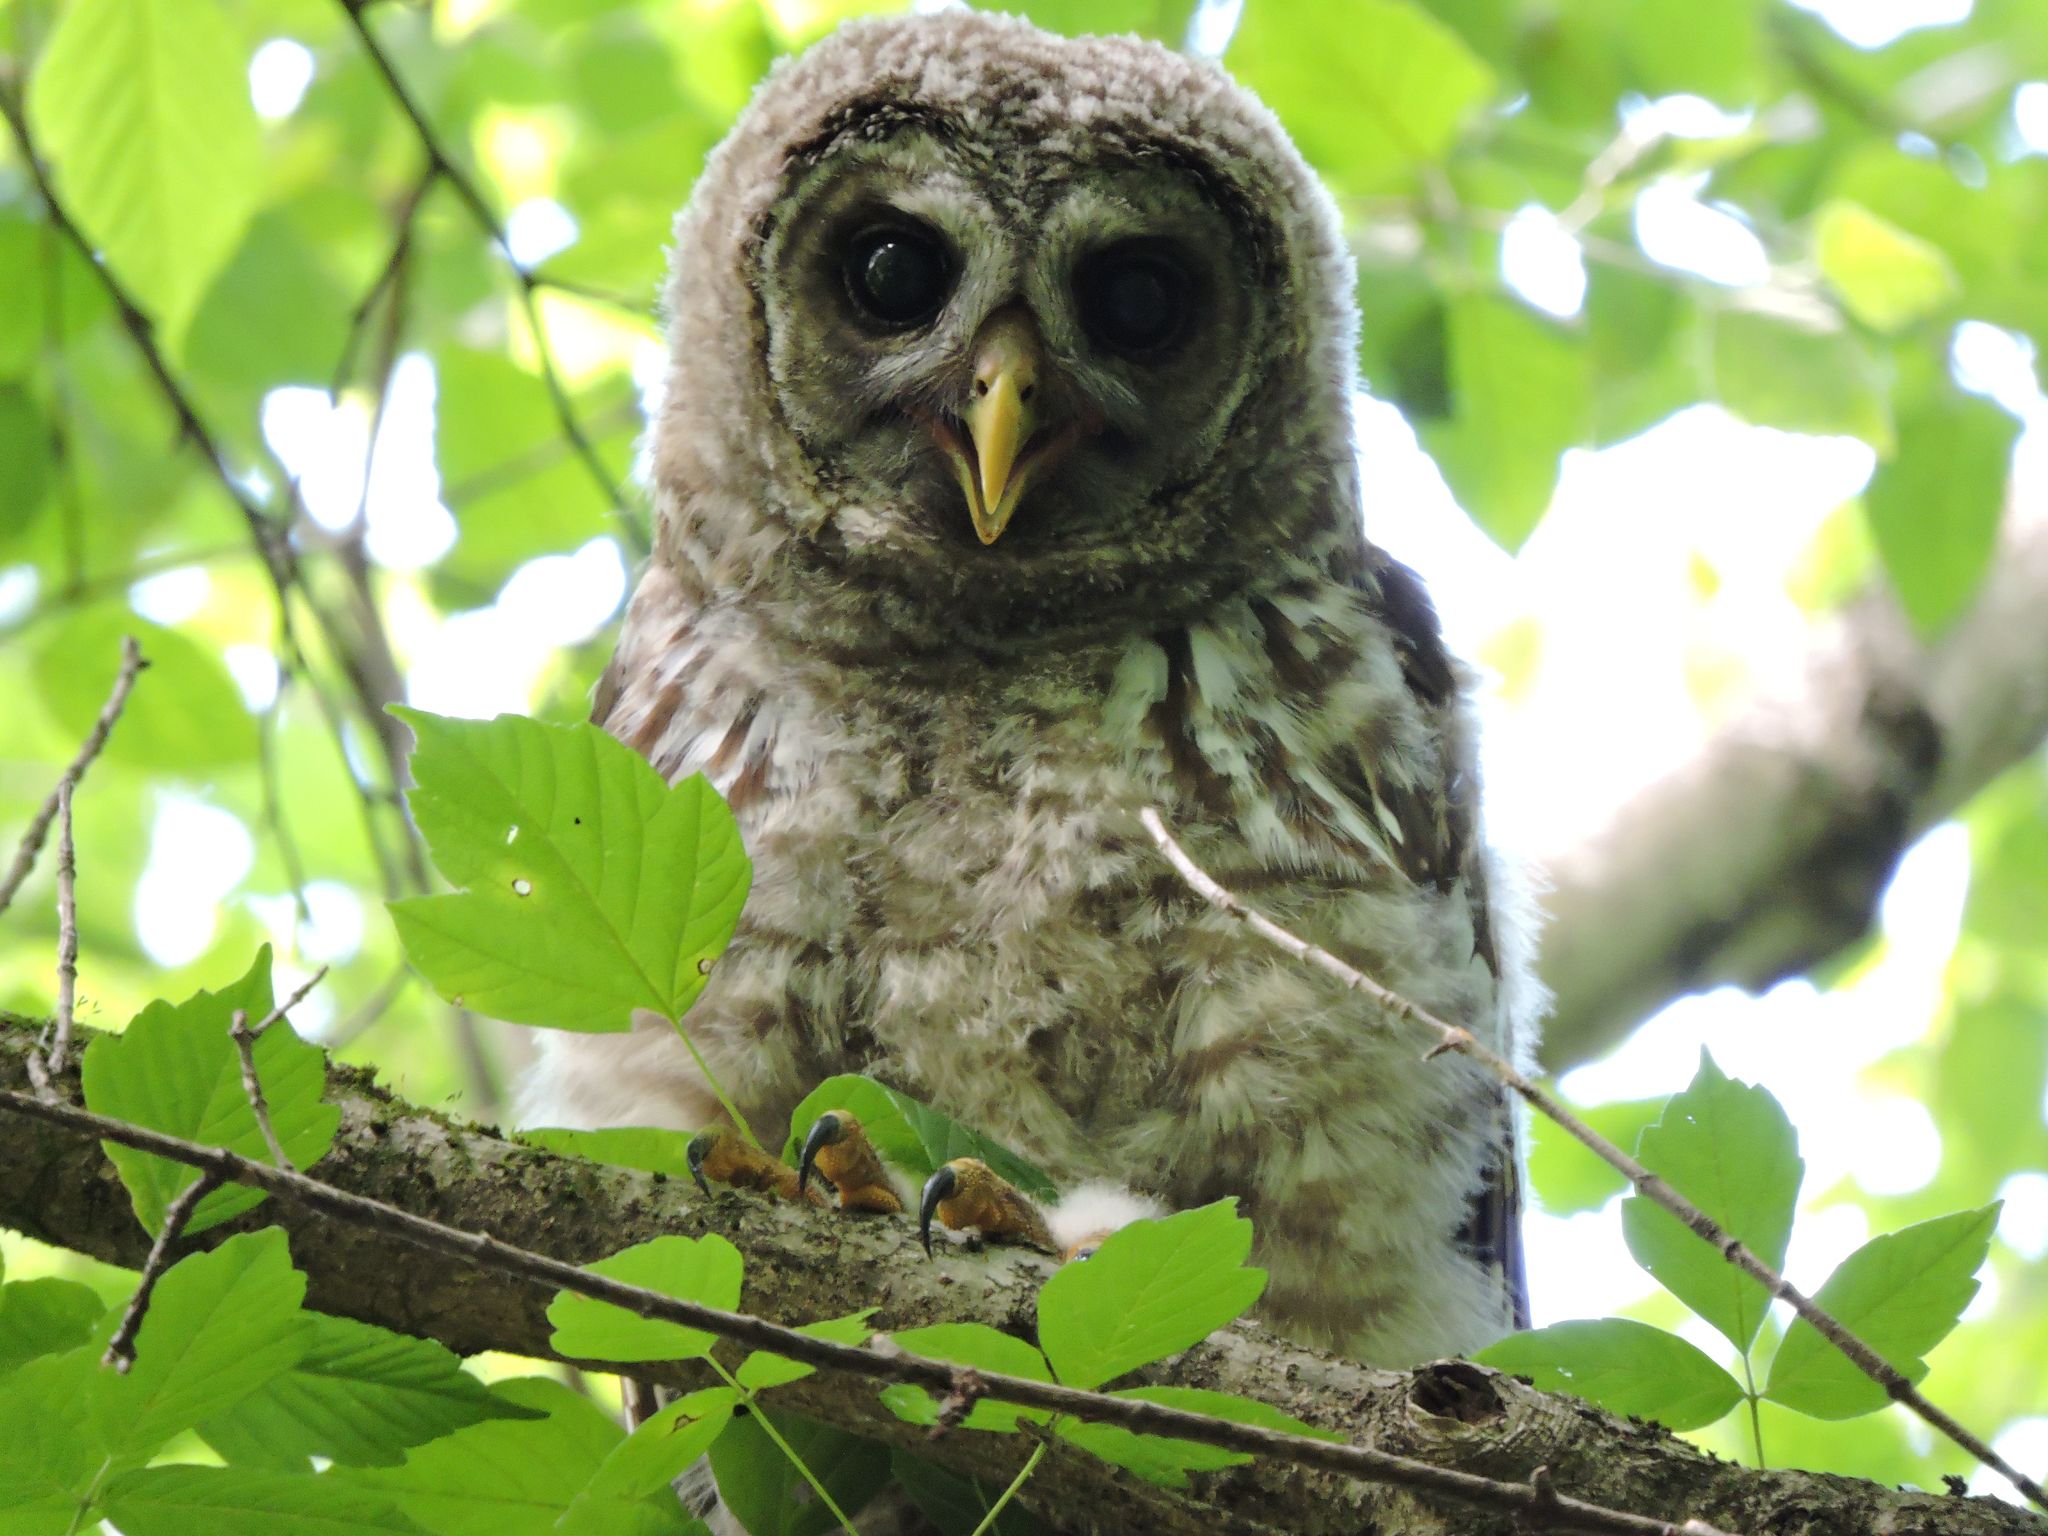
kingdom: Animalia
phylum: Chordata
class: Aves
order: Strigiformes
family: Strigidae
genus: Strix
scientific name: Strix varia
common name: Barred owl
